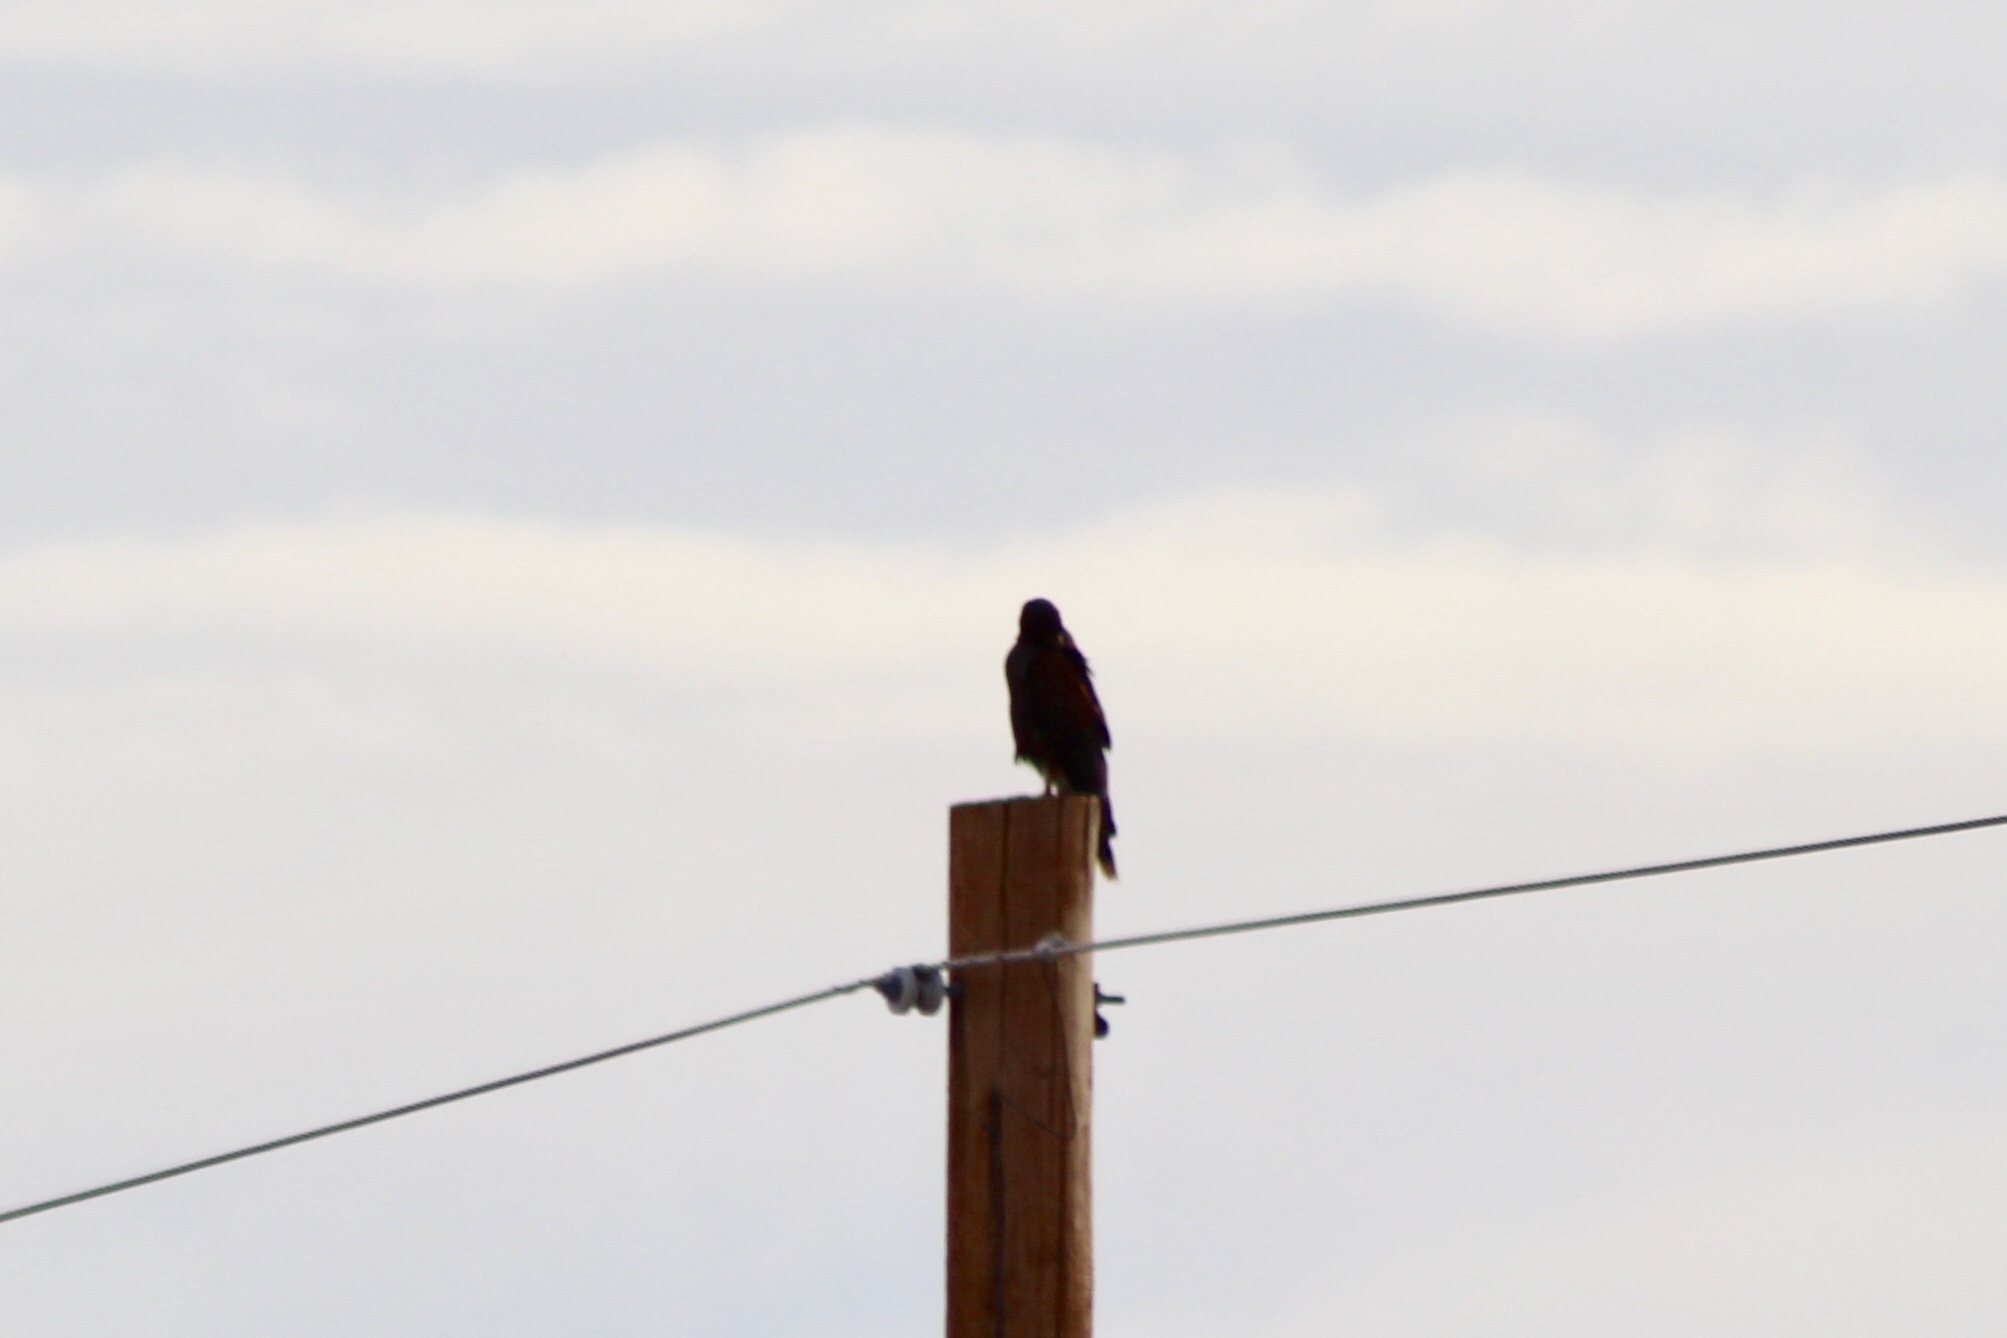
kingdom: Animalia
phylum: Chordata
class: Aves
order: Accipitriformes
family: Accipitridae
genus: Parabuteo
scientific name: Parabuteo unicinctus
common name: Harris's hawk
